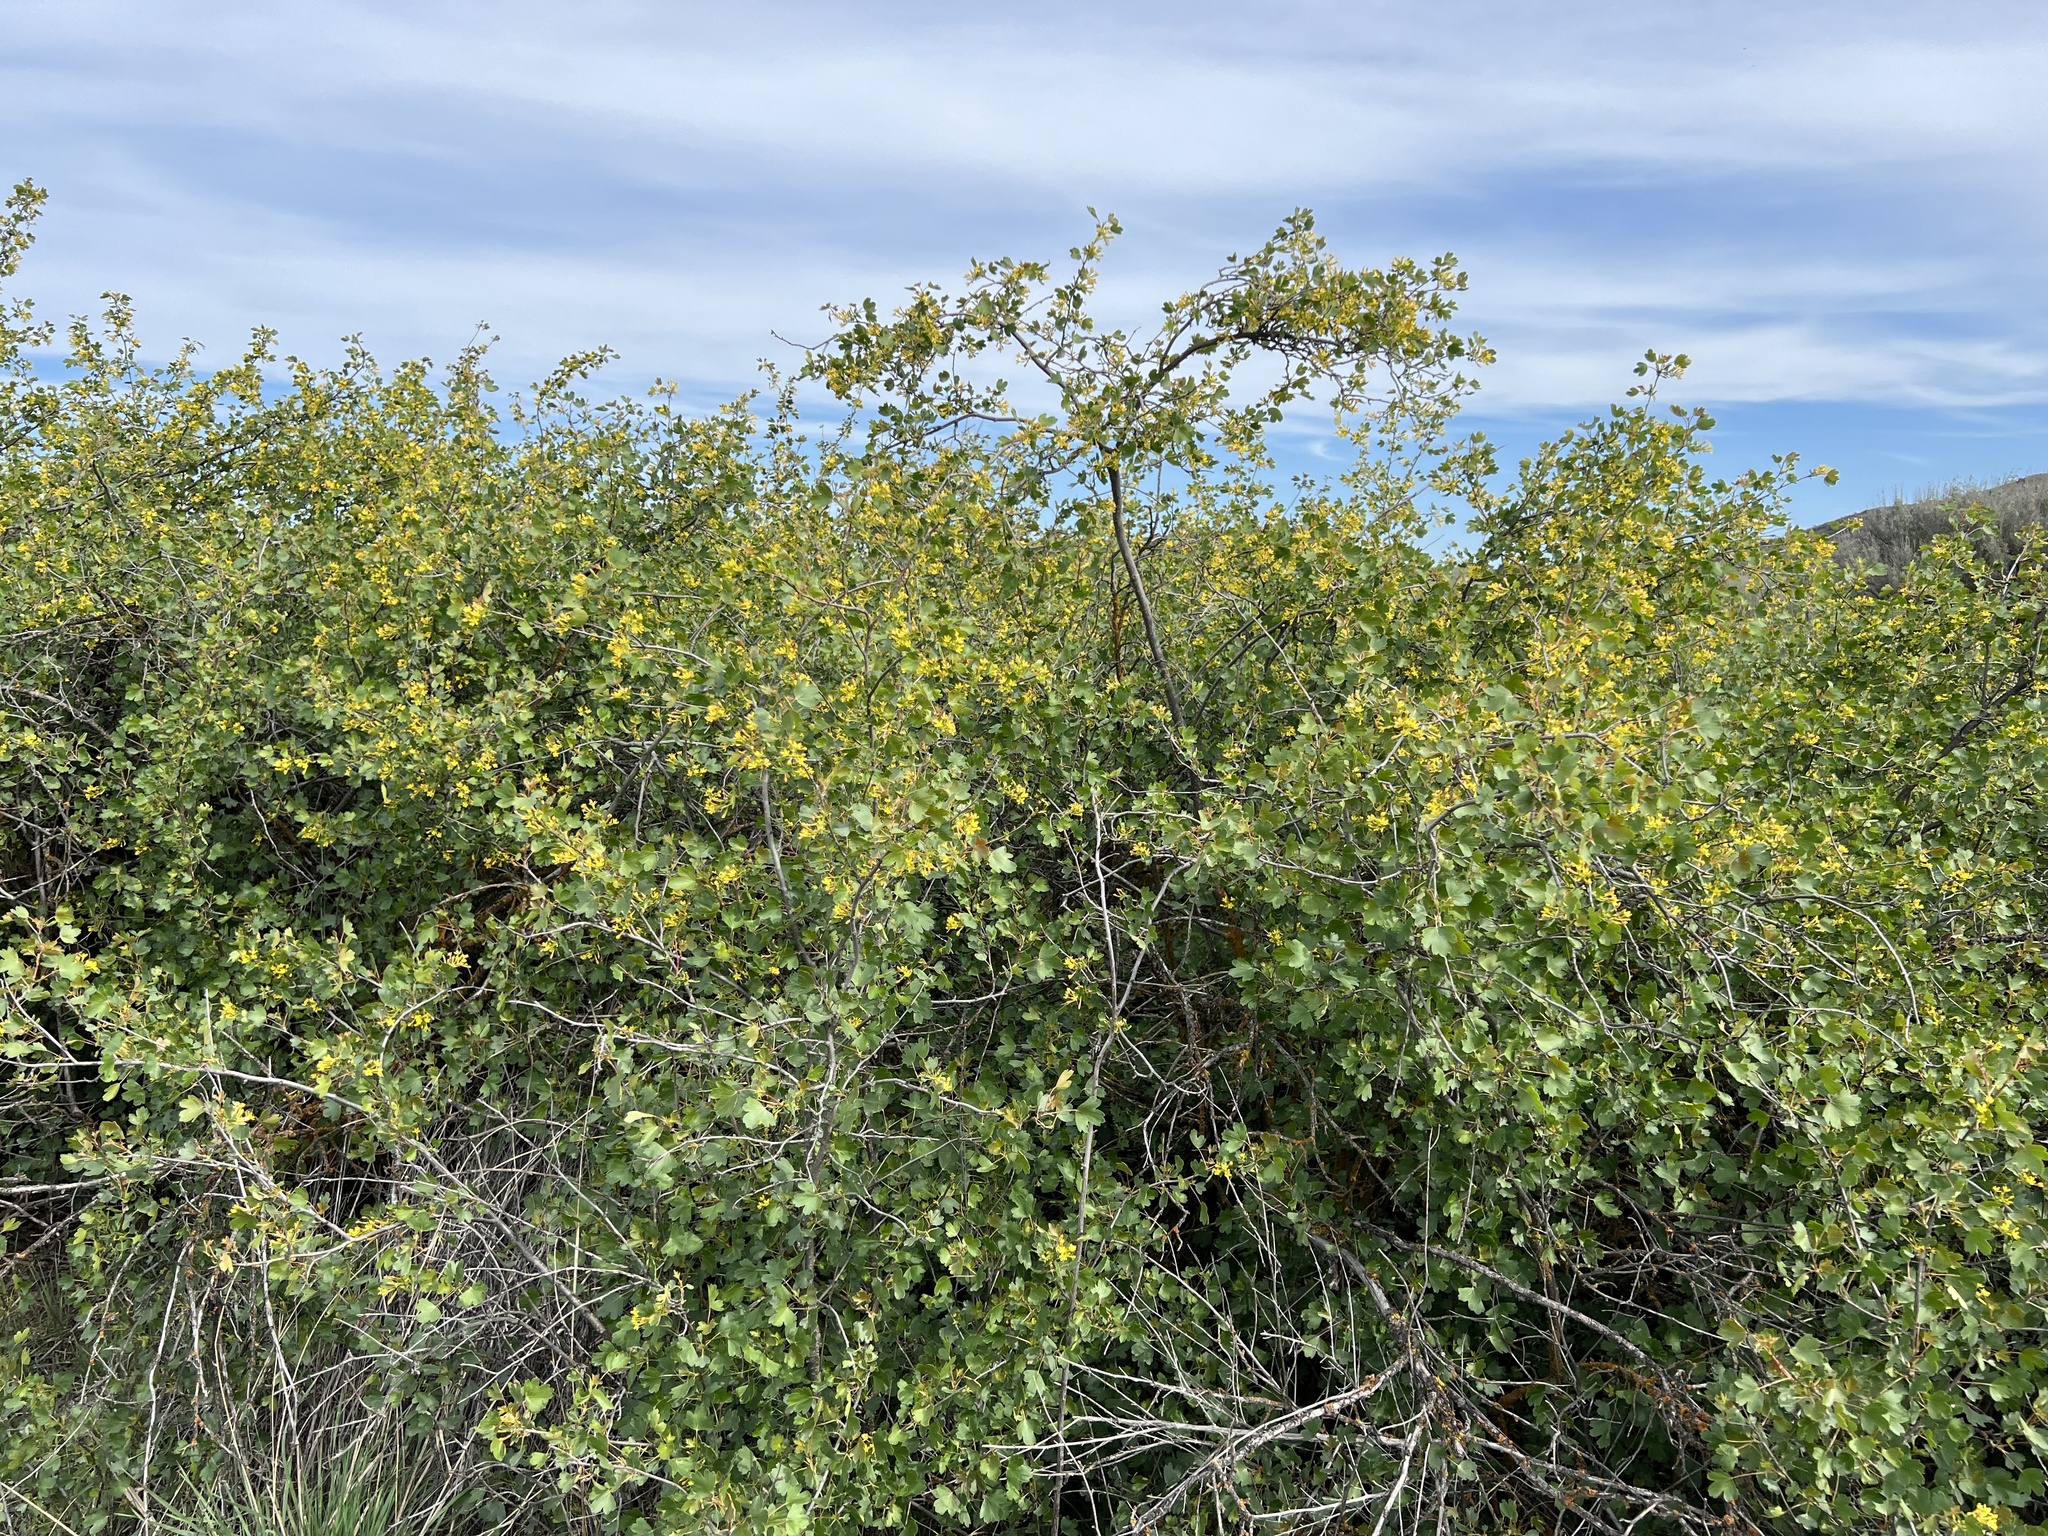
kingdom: Plantae
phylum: Tracheophyta
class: Magnoliopsida
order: Saxifragales
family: Grossulariaceae
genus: Ribes
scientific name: Ribes aureum
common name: Golden currant
